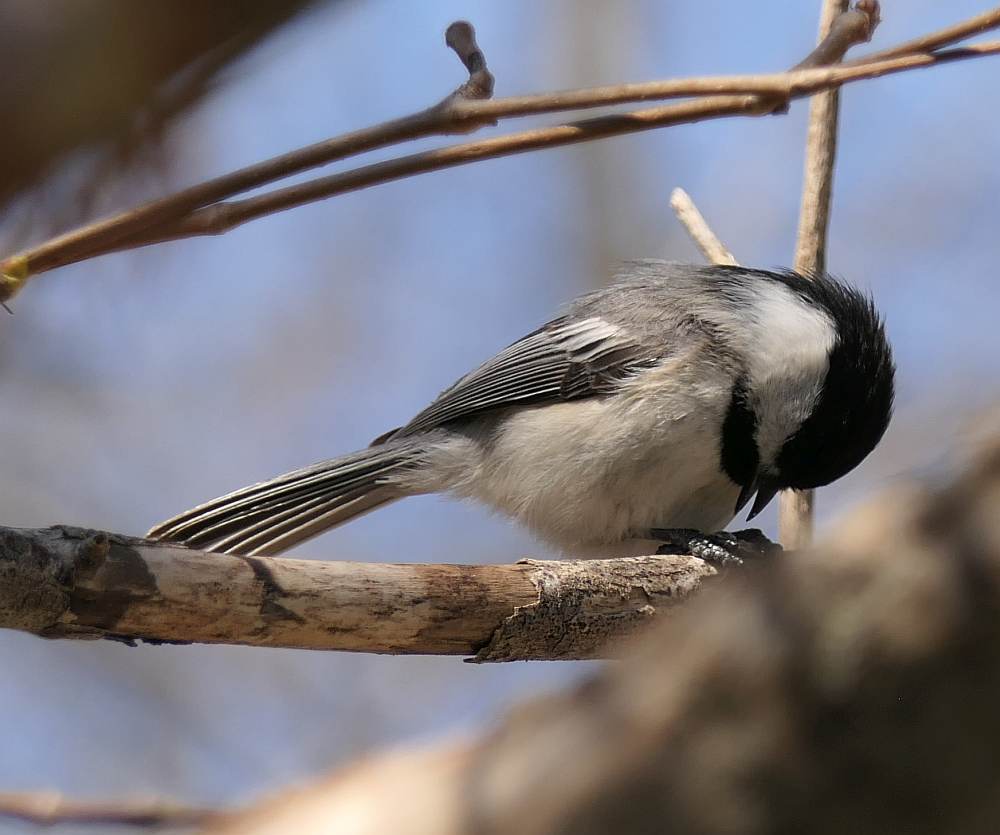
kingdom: Animalia
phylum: Chordata
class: Aves
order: Passeriformes
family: Paridae
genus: Poecile
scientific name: Poecile atricapillus
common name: Black-capped chickadee
